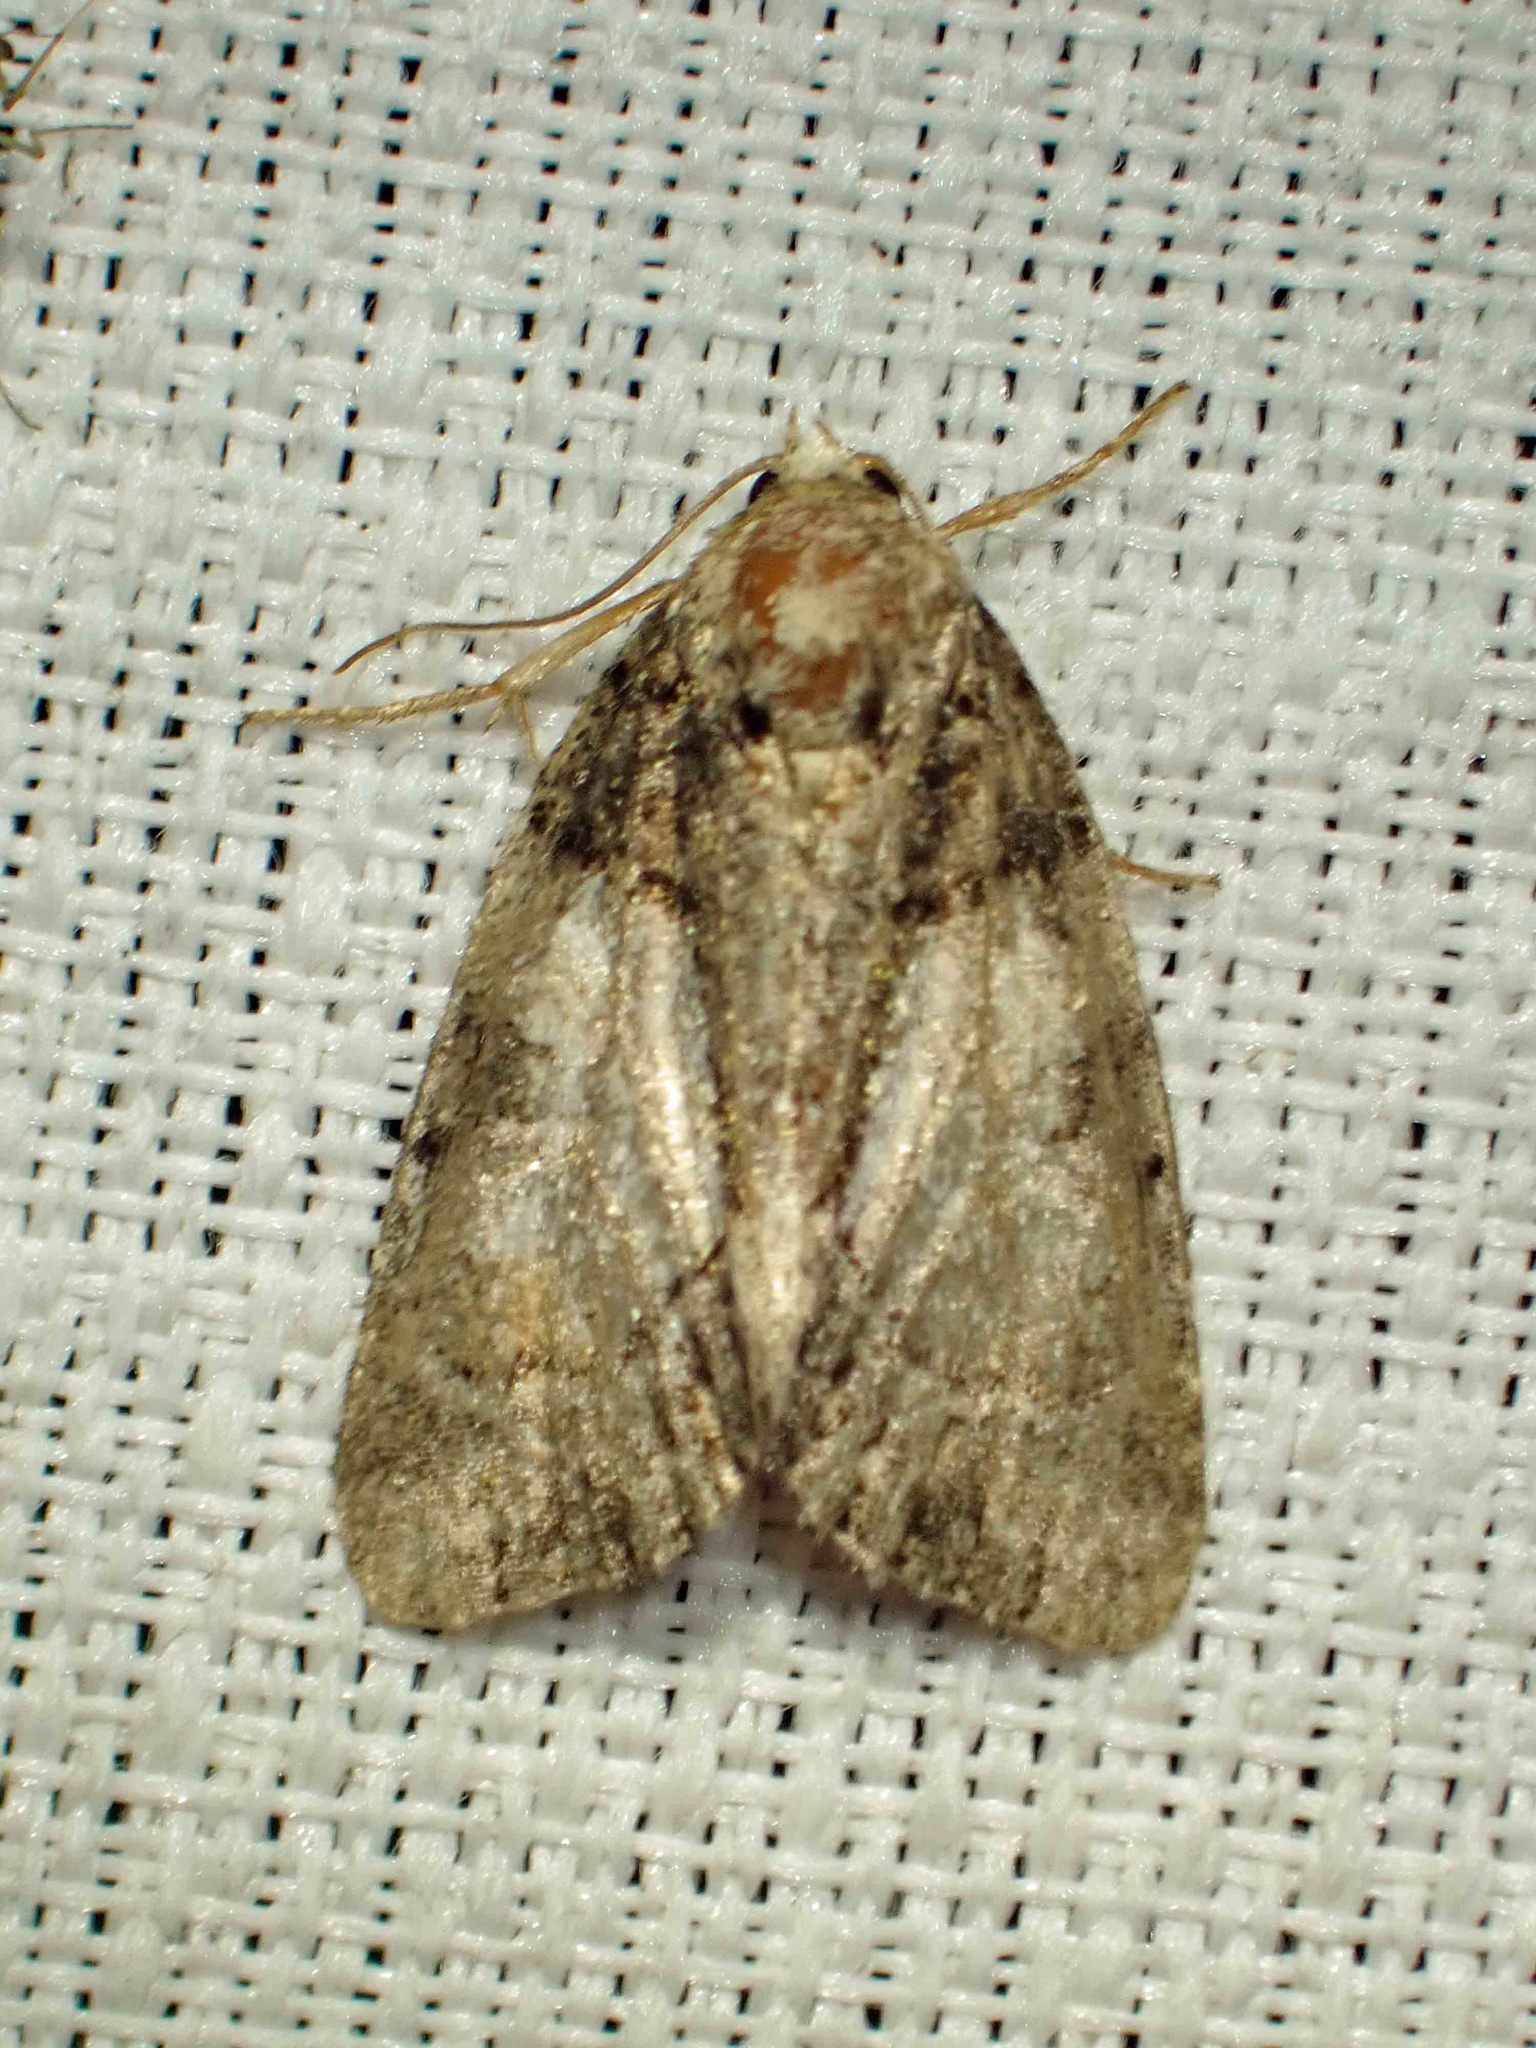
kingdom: Animalia
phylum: Arthropoda
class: Insecta
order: Lepidoptera
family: Noctuidae
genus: Chytonix
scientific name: Chytonix palliatricula
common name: Cloaked marvel
